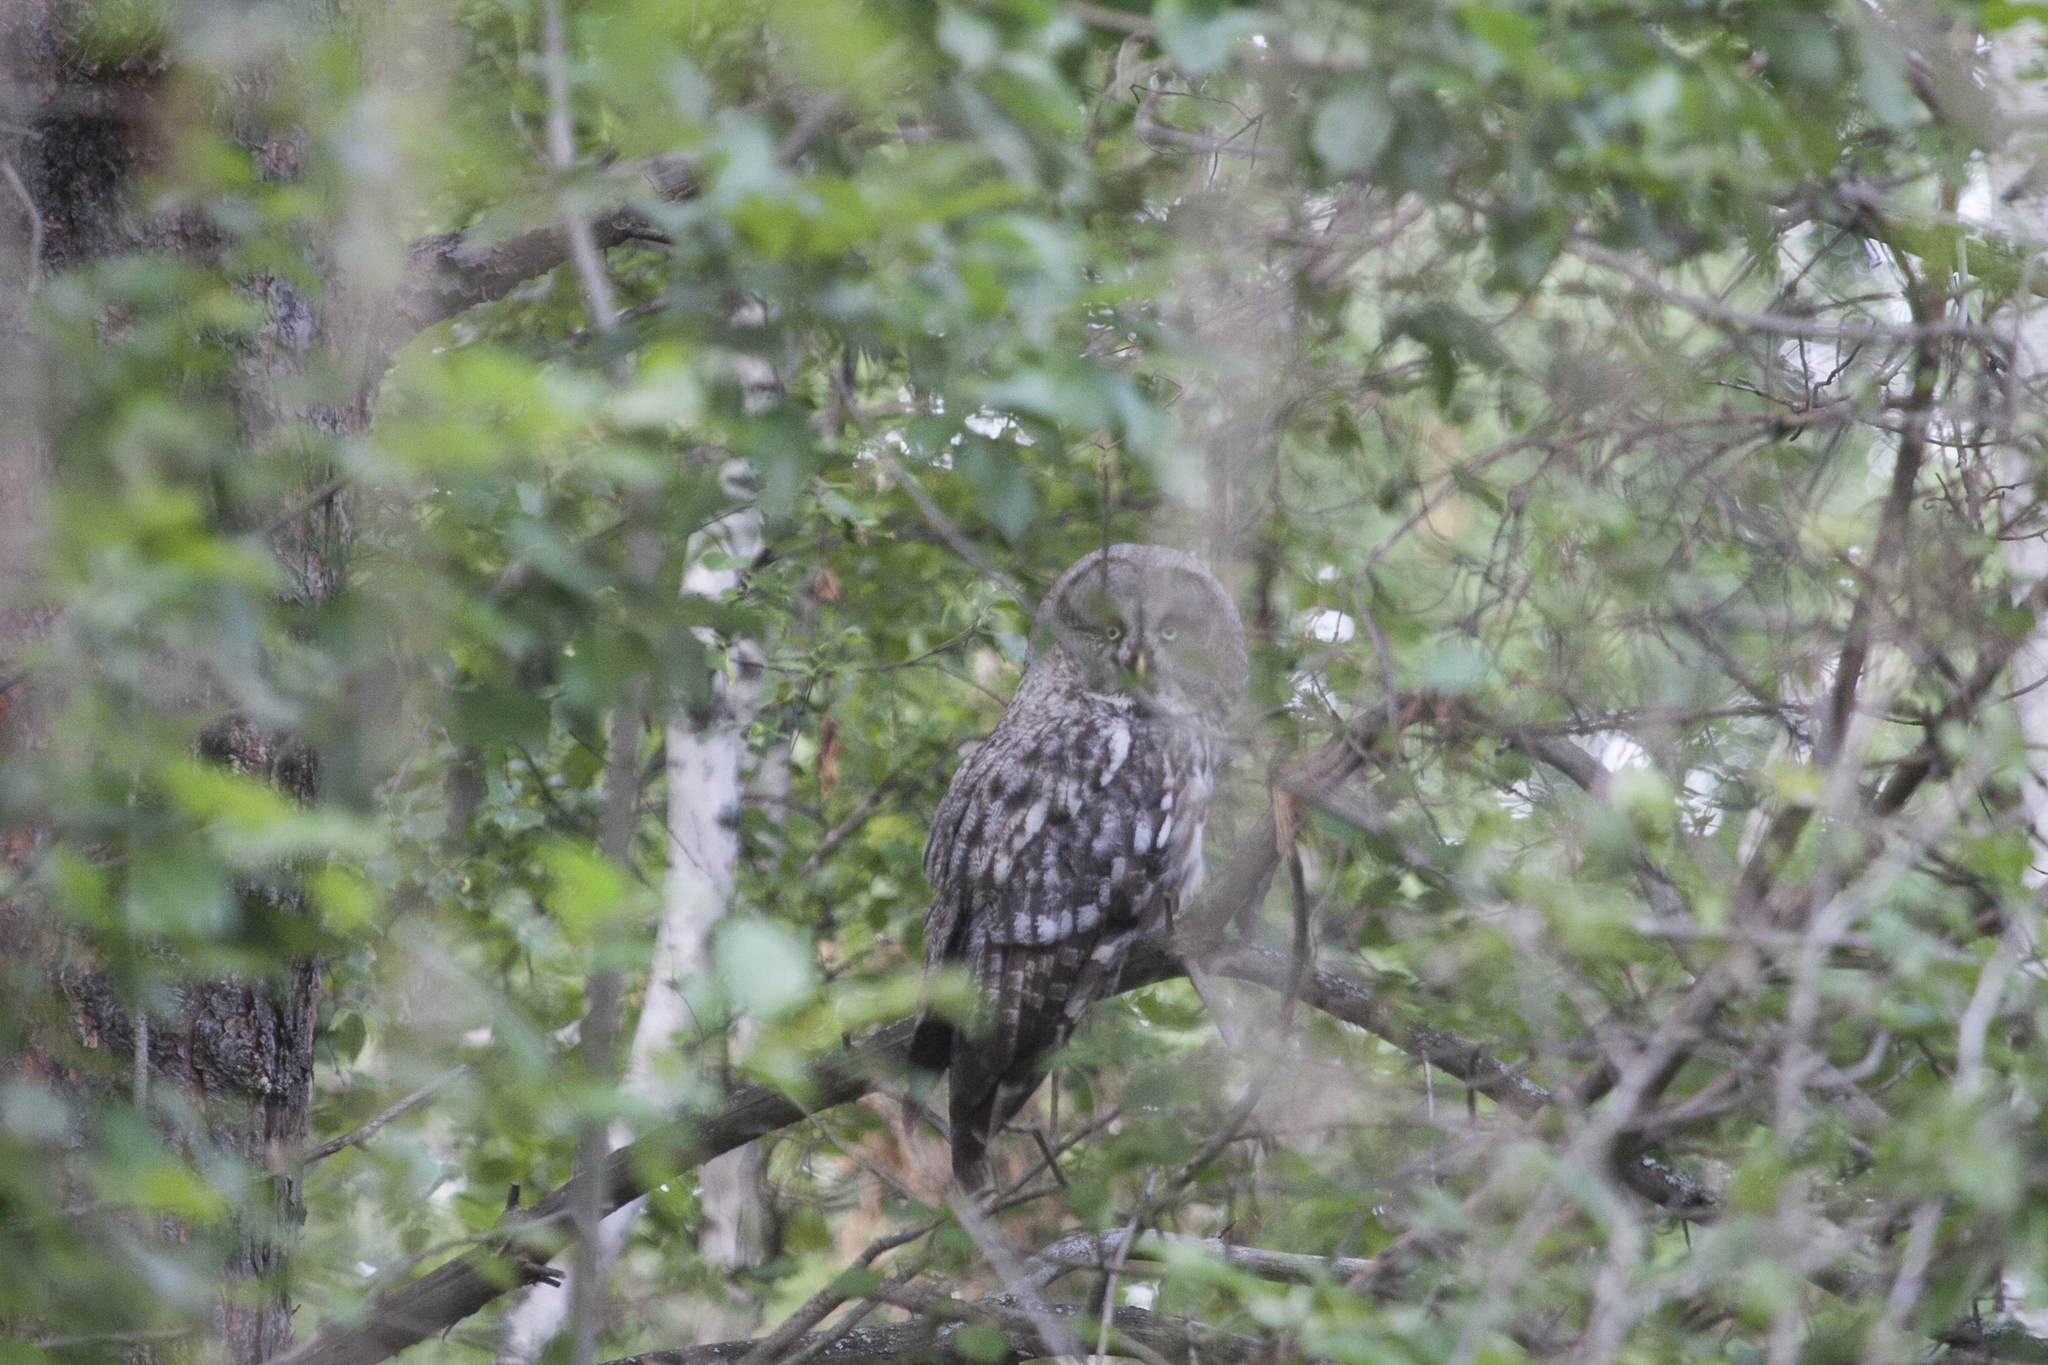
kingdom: Animalia
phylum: Chordata
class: Aves
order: Strigiformes
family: Strigidae
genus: Strix
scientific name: Strix nebulosa
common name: Great grey owl
